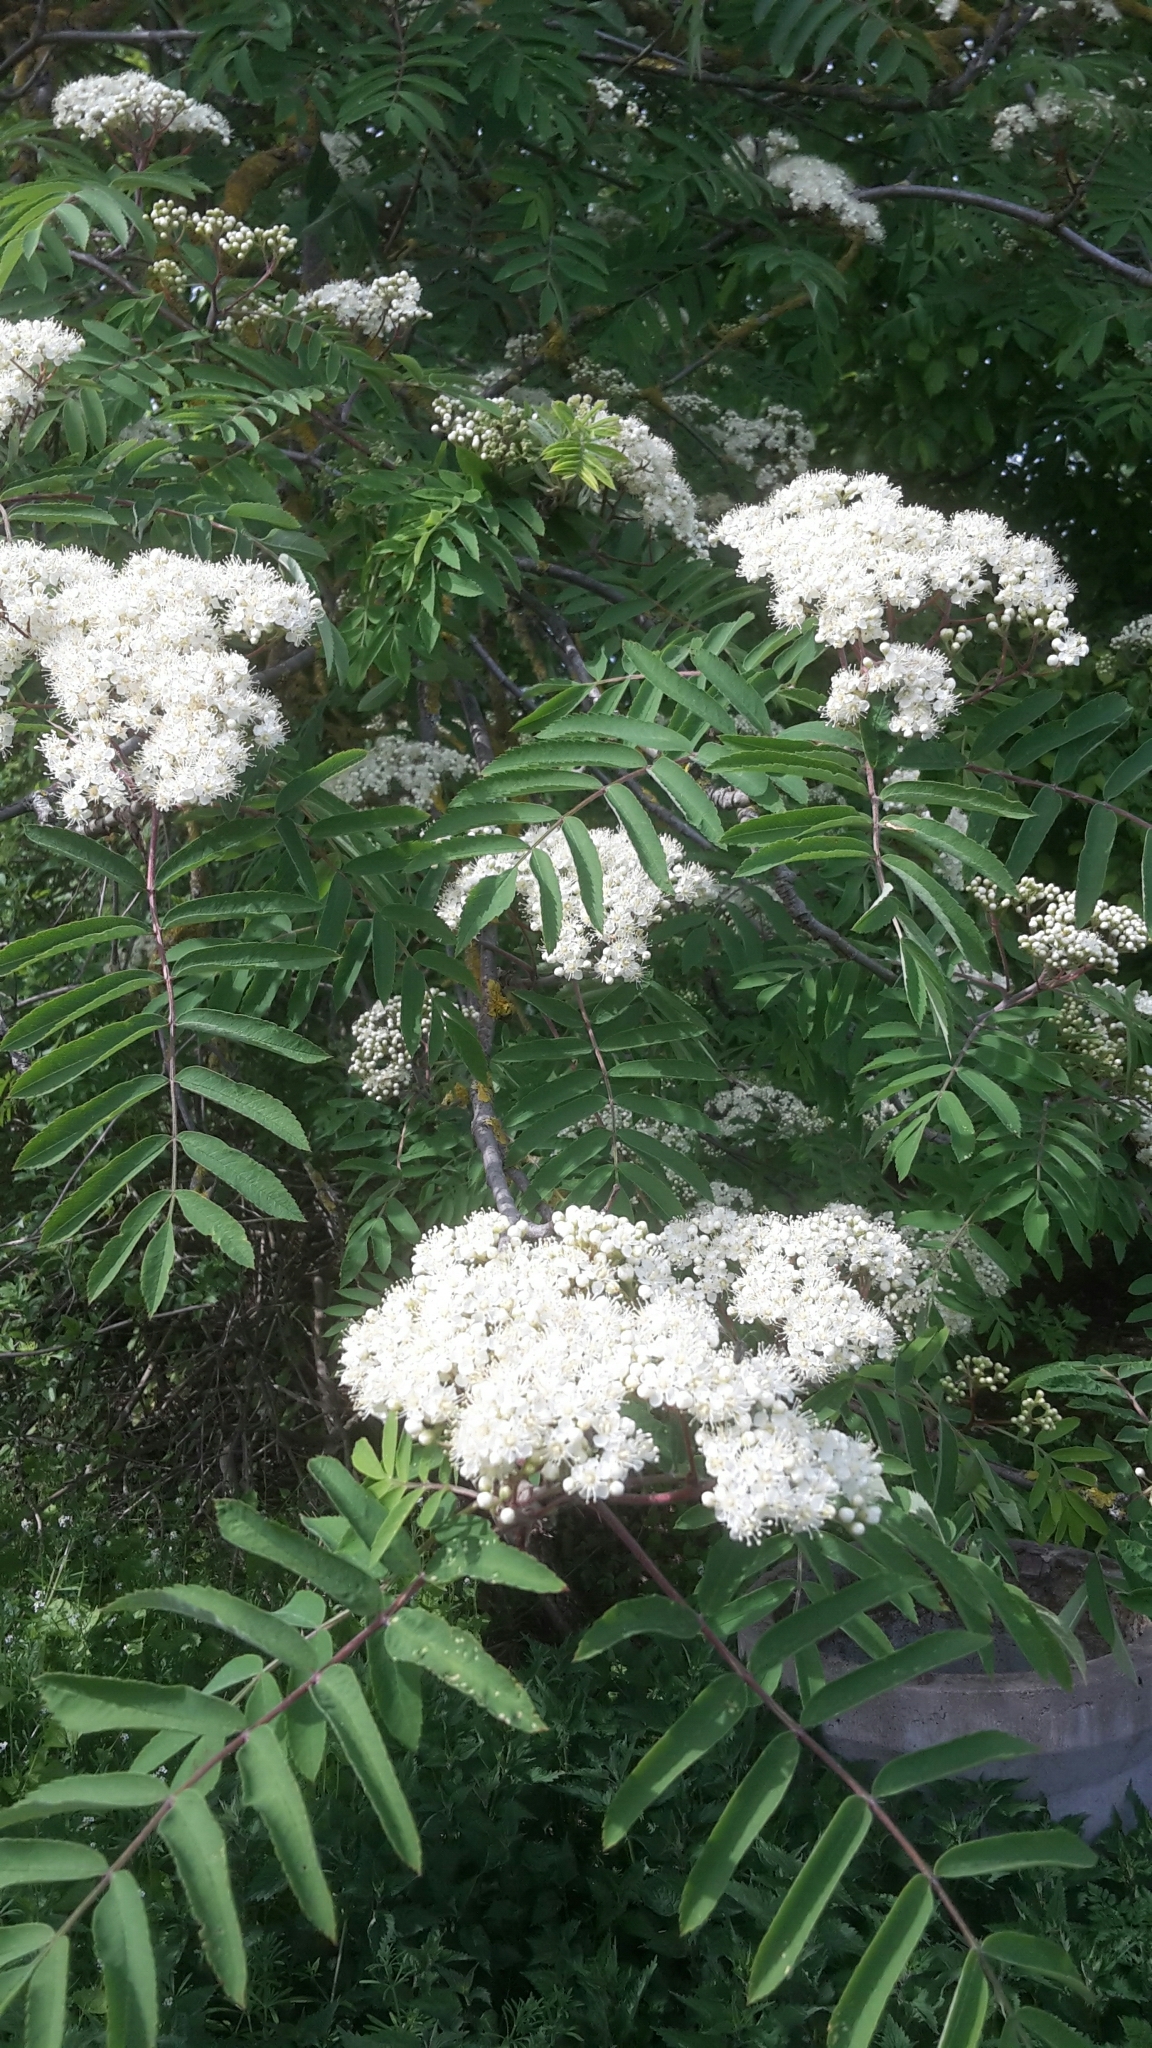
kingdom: Plantae
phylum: Tracheophyta
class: Magnoliopsida
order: Rosales
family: Rosaceae
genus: Sorbus
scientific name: Sorbus aucuparia
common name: Rowan
